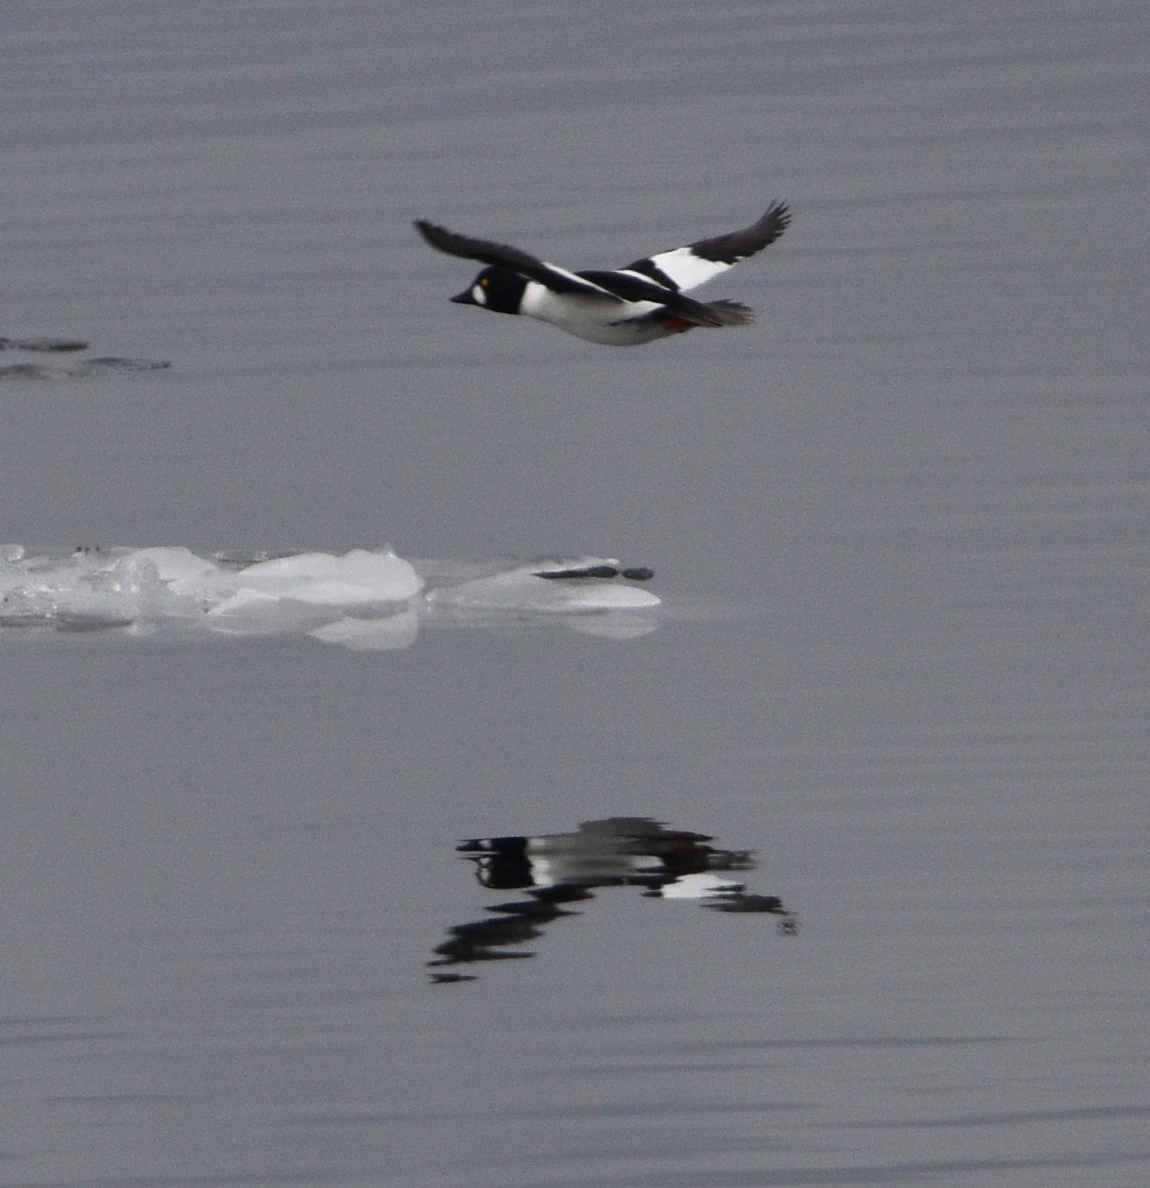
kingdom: Animalia
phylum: Chordata
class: Aves
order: Anseriformes
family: Anatidae
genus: Bucephala
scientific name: Bucephala clangula
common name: Common goldeneye
